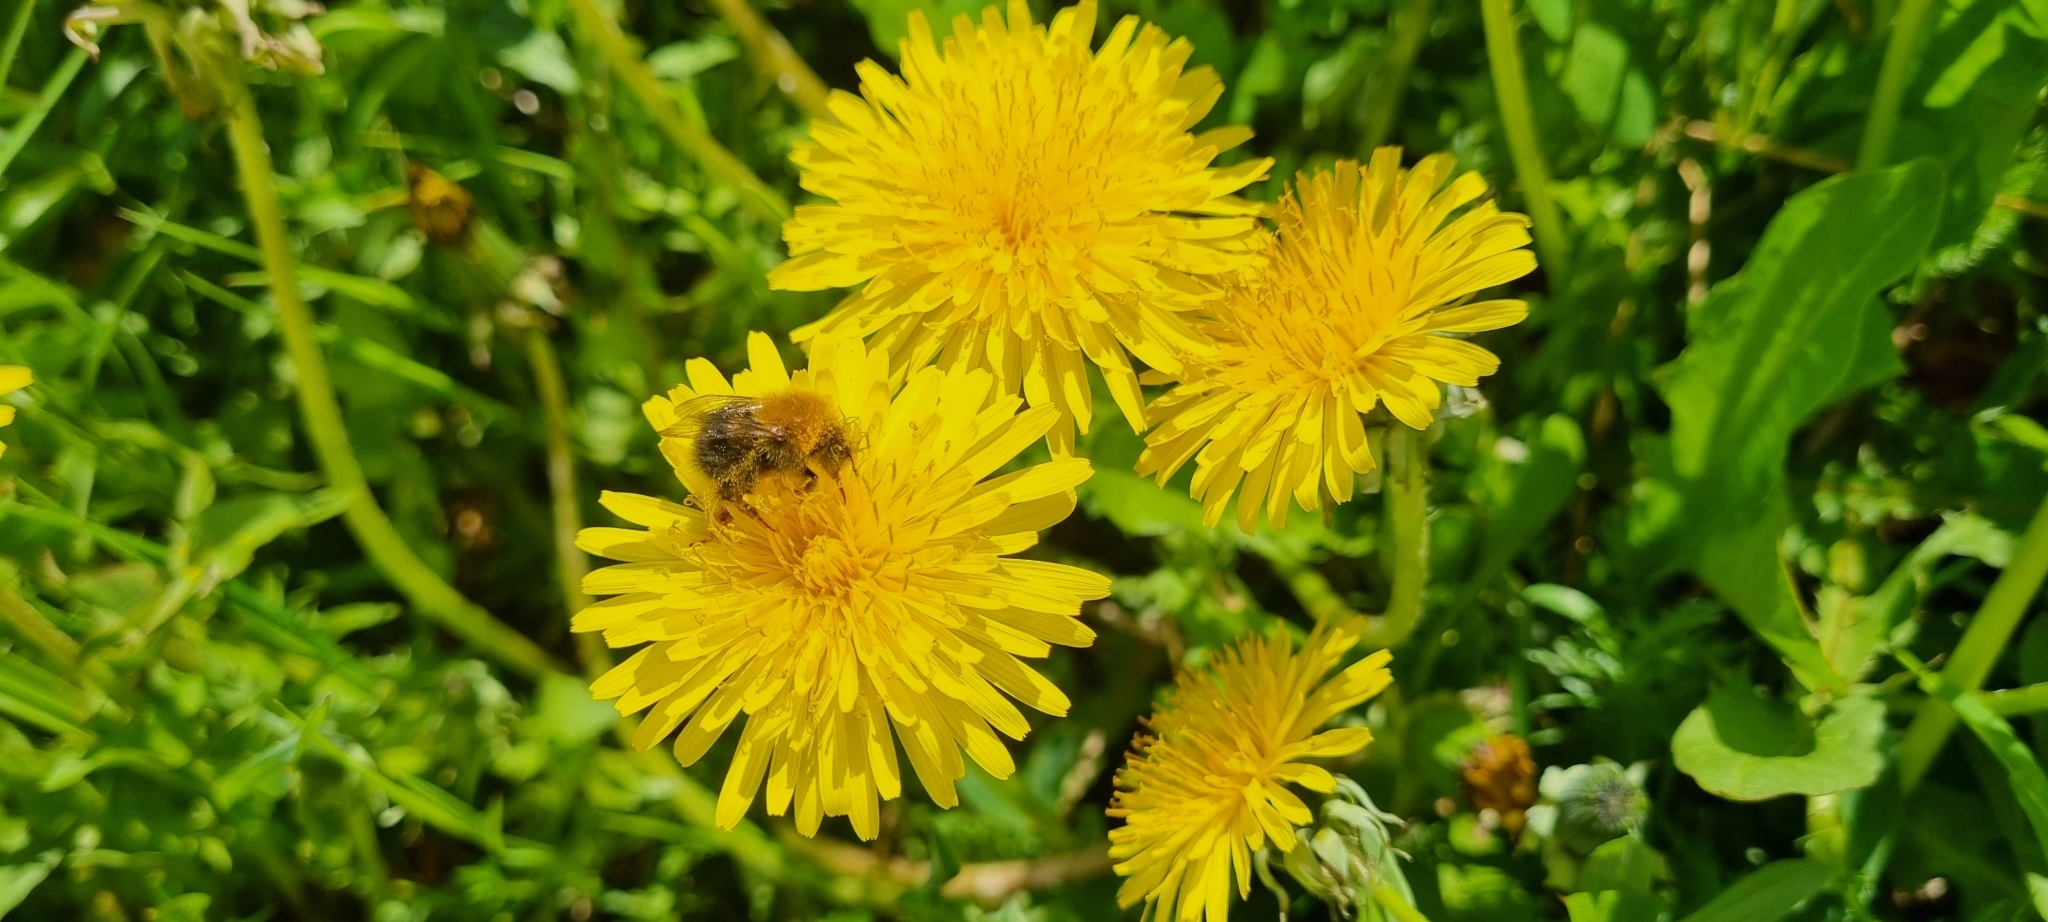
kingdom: Animalia
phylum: Arthropoda
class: Insecta
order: Hymenoptera
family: Apidae
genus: Bombus
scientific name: Bombus hypnorum
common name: New garden bumblebee
